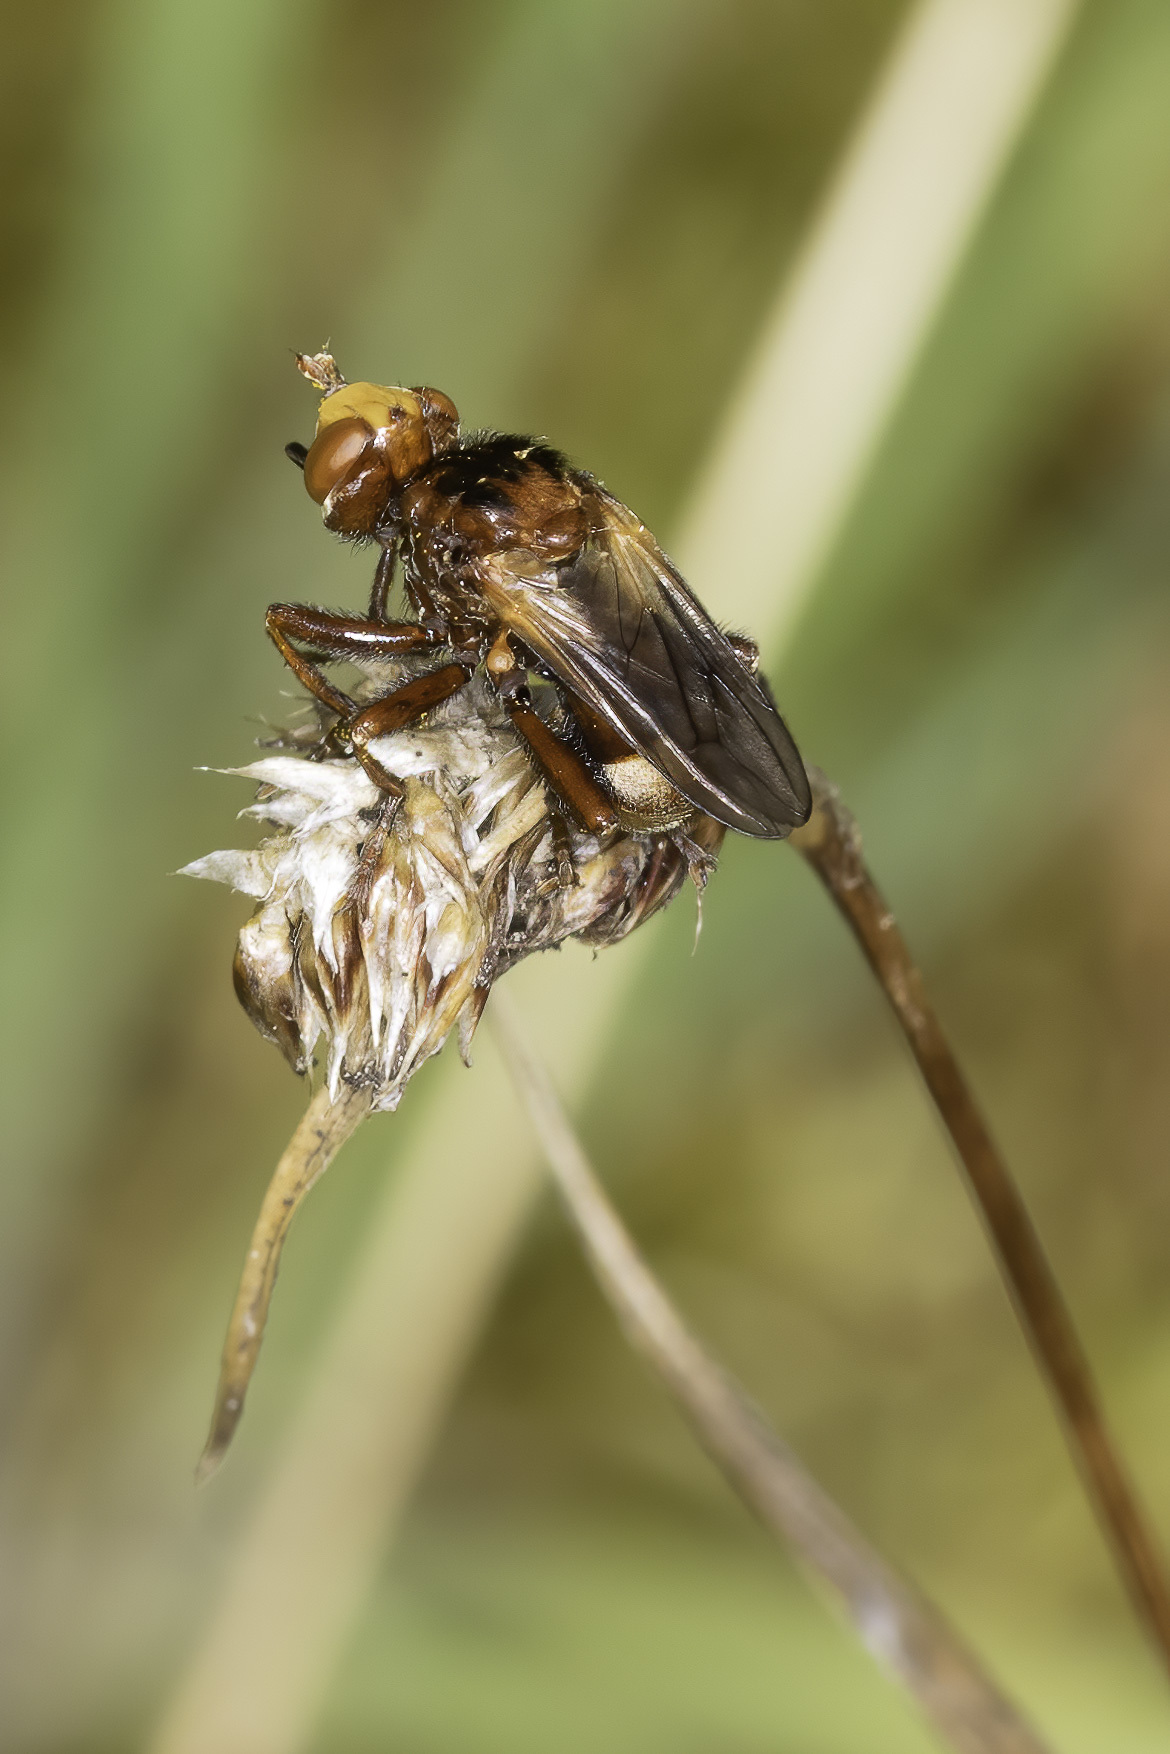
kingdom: Animalia
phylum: Arthropoda
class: Insecta
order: Diptera
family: Conopidae
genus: Sicus
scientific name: Sicus ferrugineus
